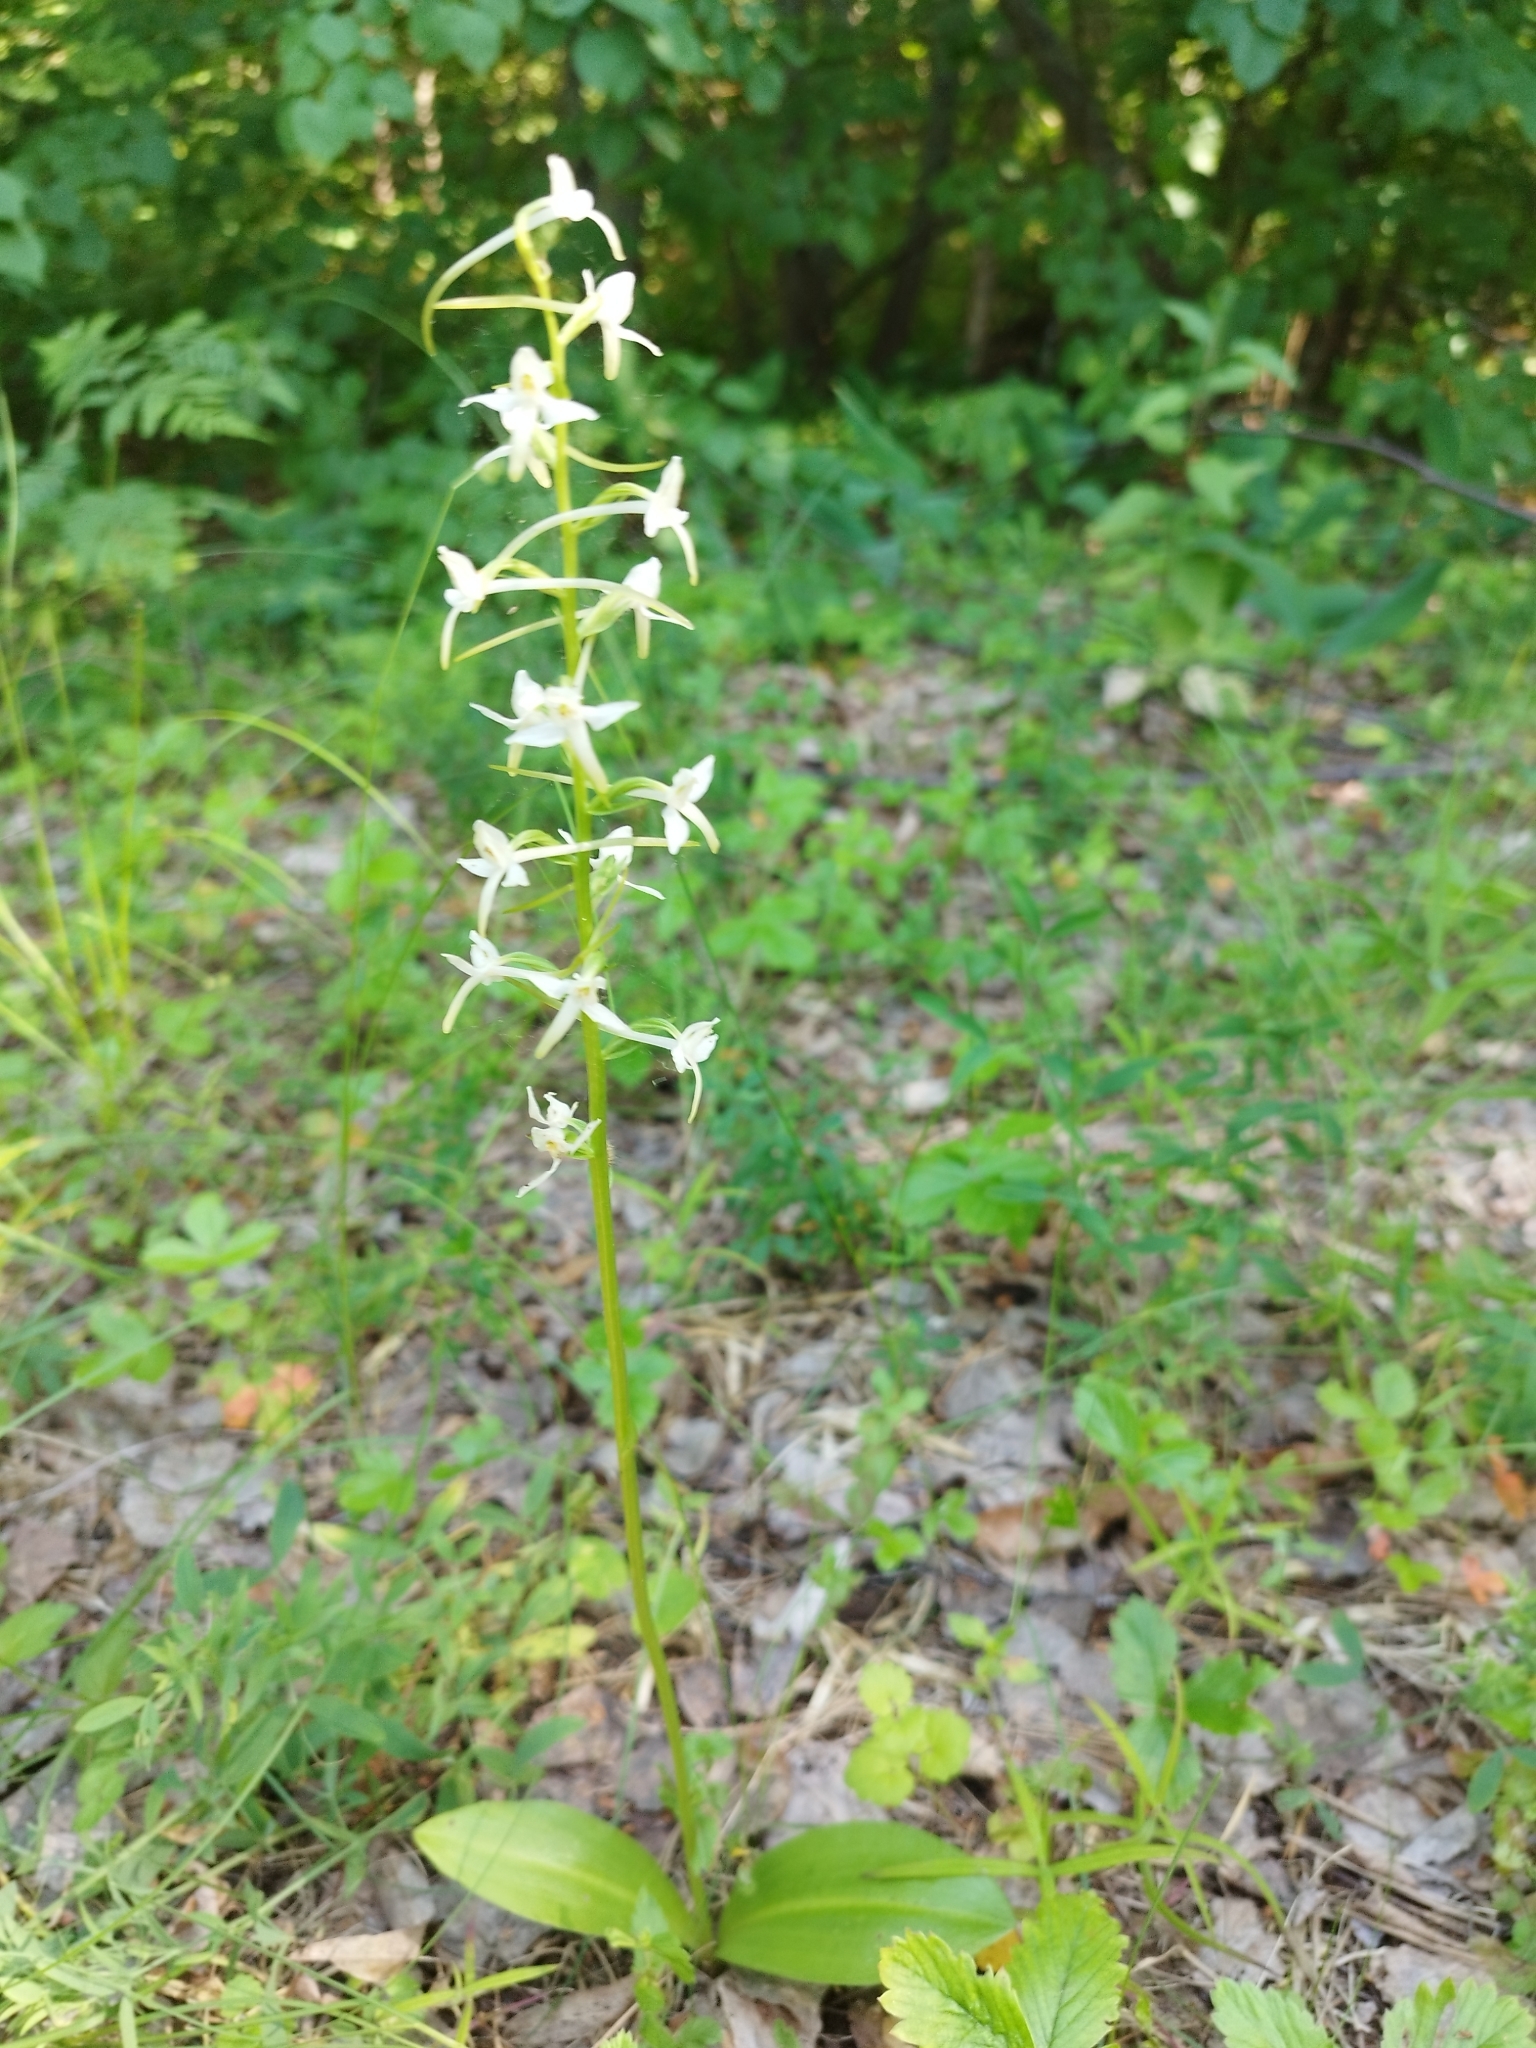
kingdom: Plantae
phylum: Tracheophyta
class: Liliopsida
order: Asparagales
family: Orchidaceae
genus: Platanthera
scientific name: Platanthera bifolia
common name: Lesser butterfly-orchid
